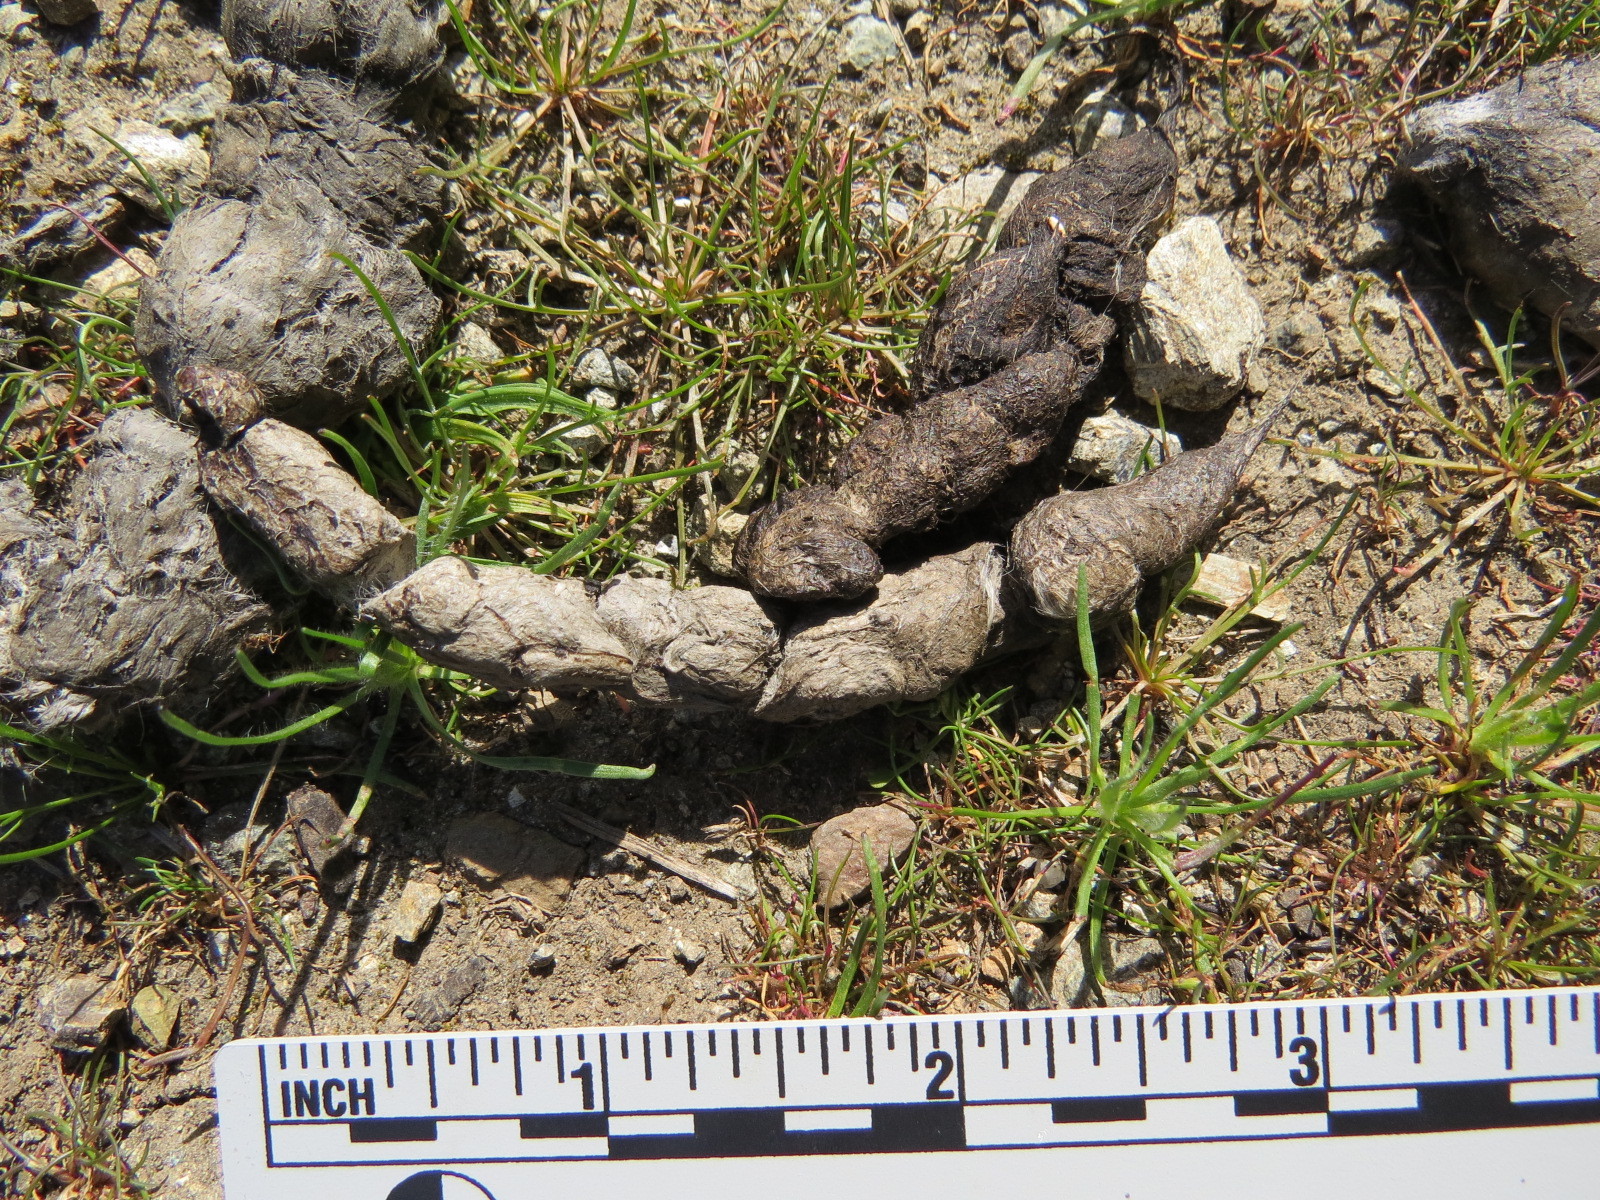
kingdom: Animalia
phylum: Chordata
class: Mammalia
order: Carnivora
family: Canidae
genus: Urocyon
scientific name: Urocyon cinereoargenteus
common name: Gray fox
